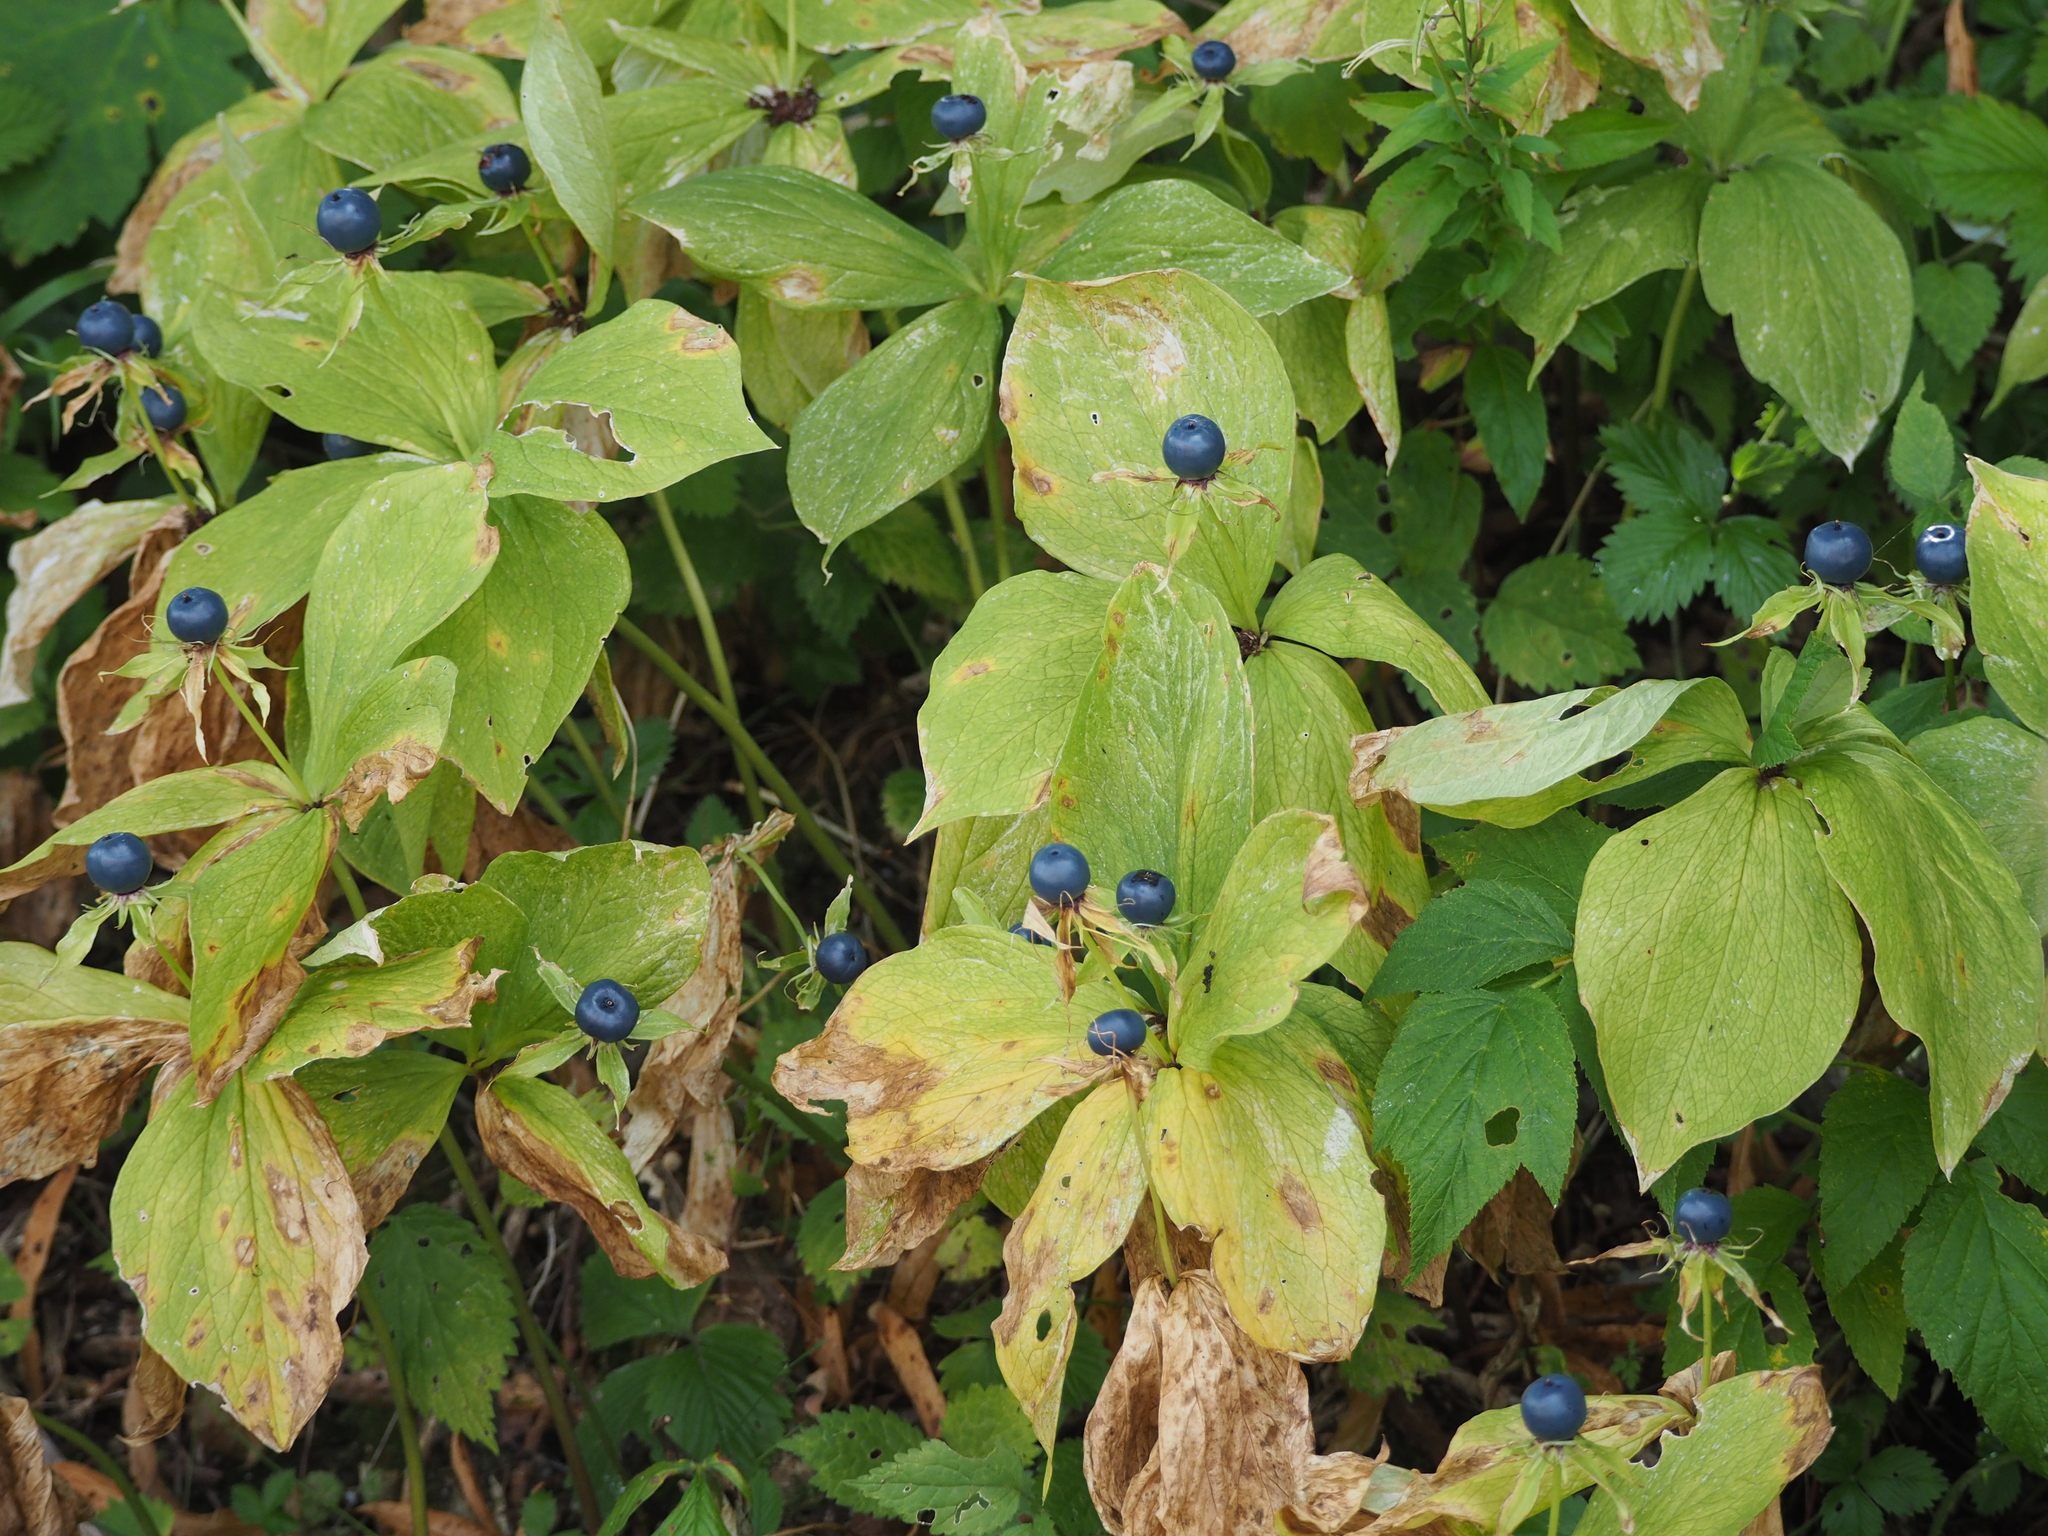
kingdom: Plantae
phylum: Tracheophyta
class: Liliopsida
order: Liliales
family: Melanthiaceae
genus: Paris
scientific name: Paris quadrifolia
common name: Herb-paris
